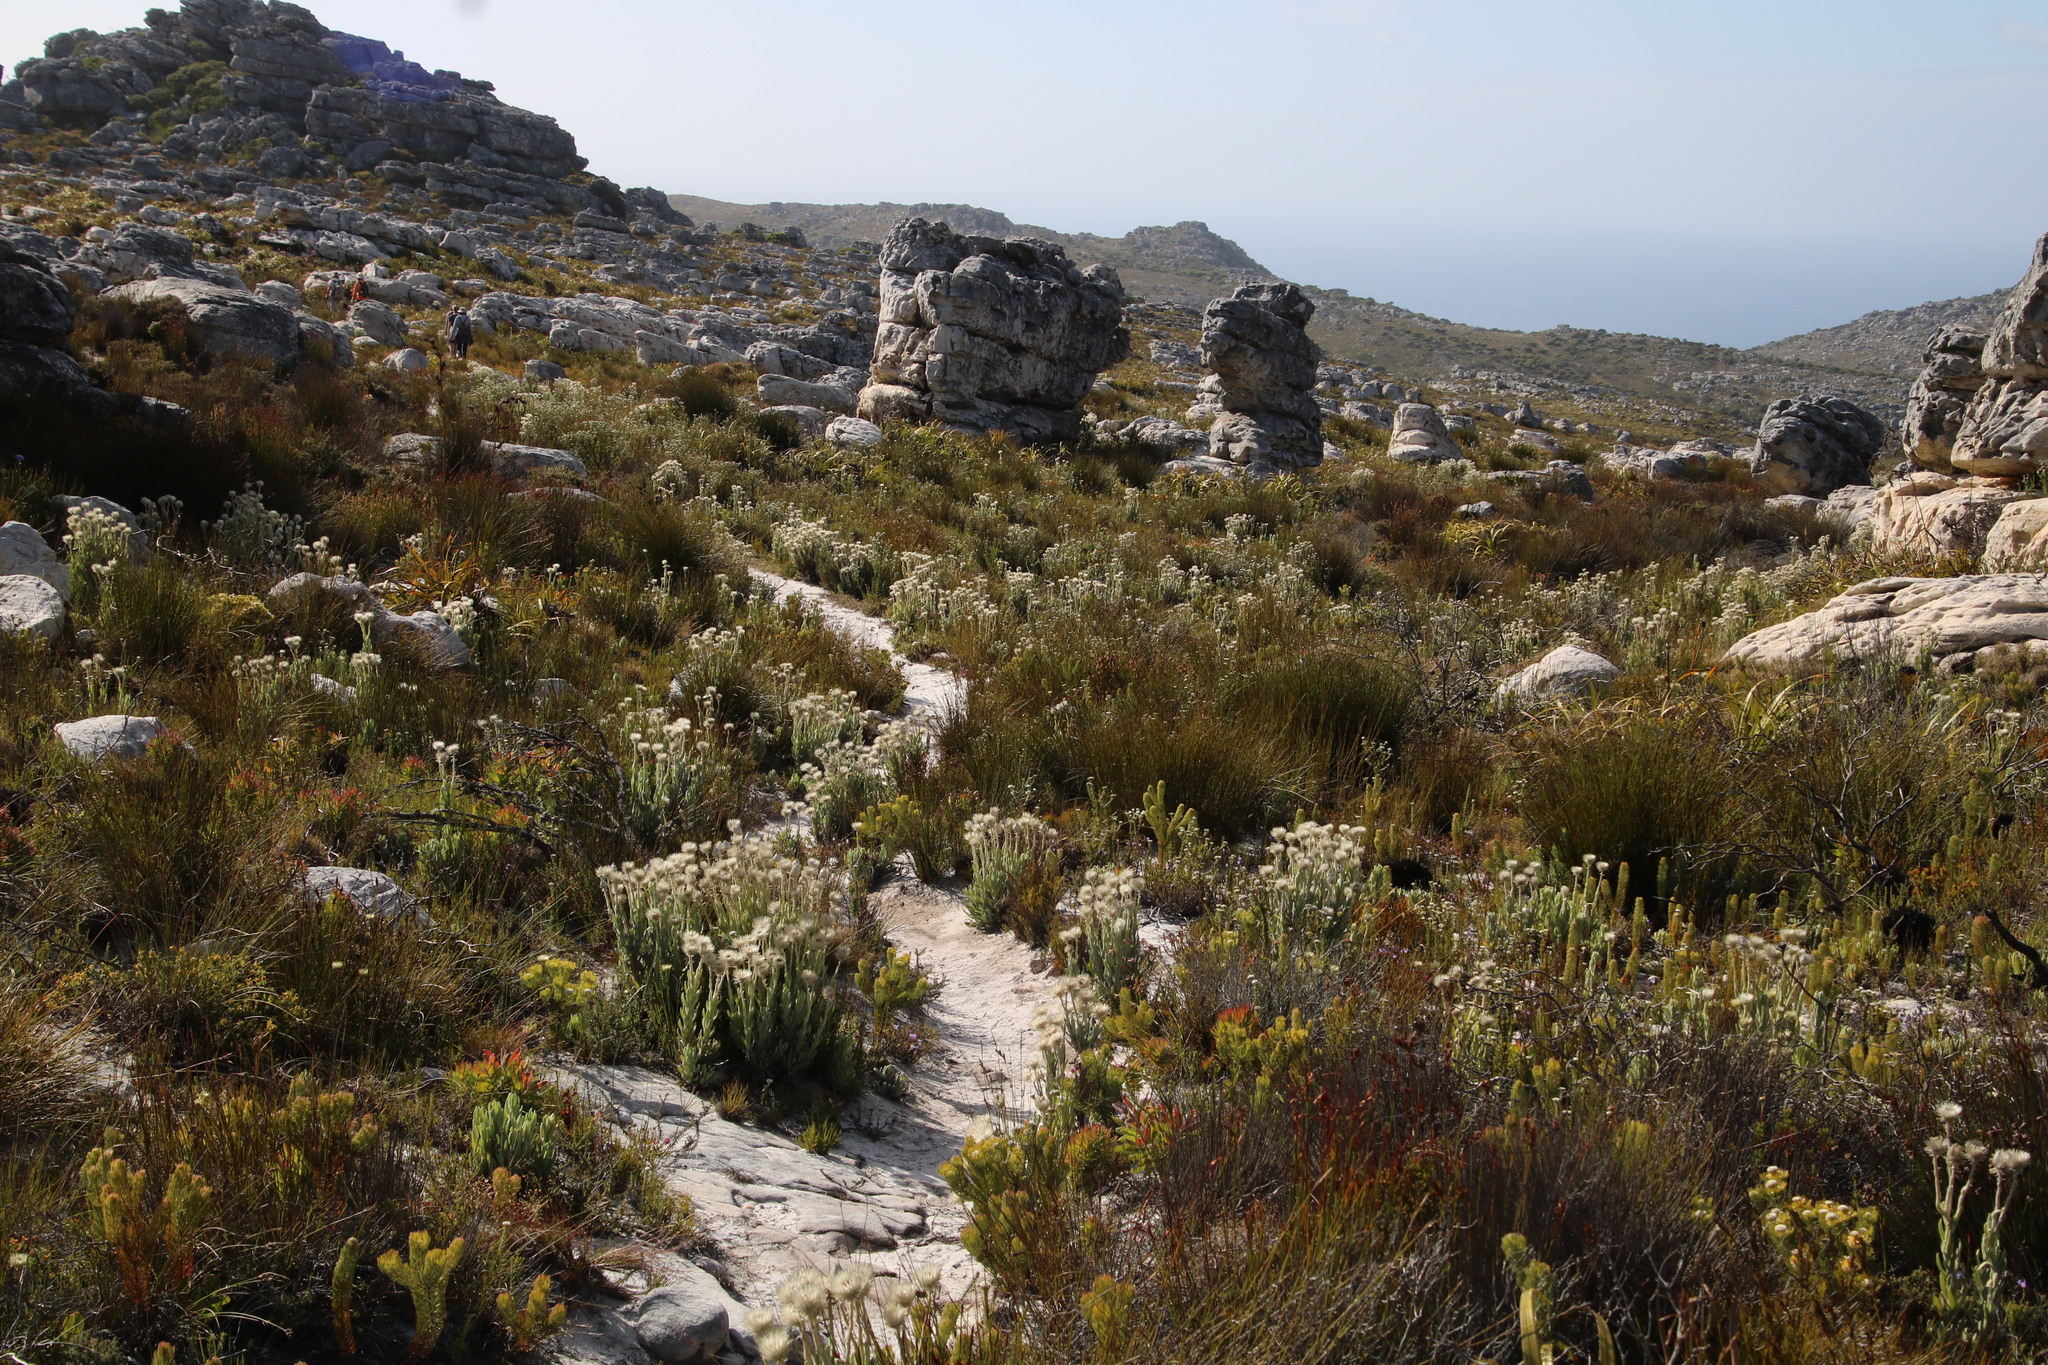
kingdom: Plantae
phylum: Tracheophyta
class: Magnoliopsida
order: Asterales
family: Asteraceae
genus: Syncarpha
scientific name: Syncarpha vestita
